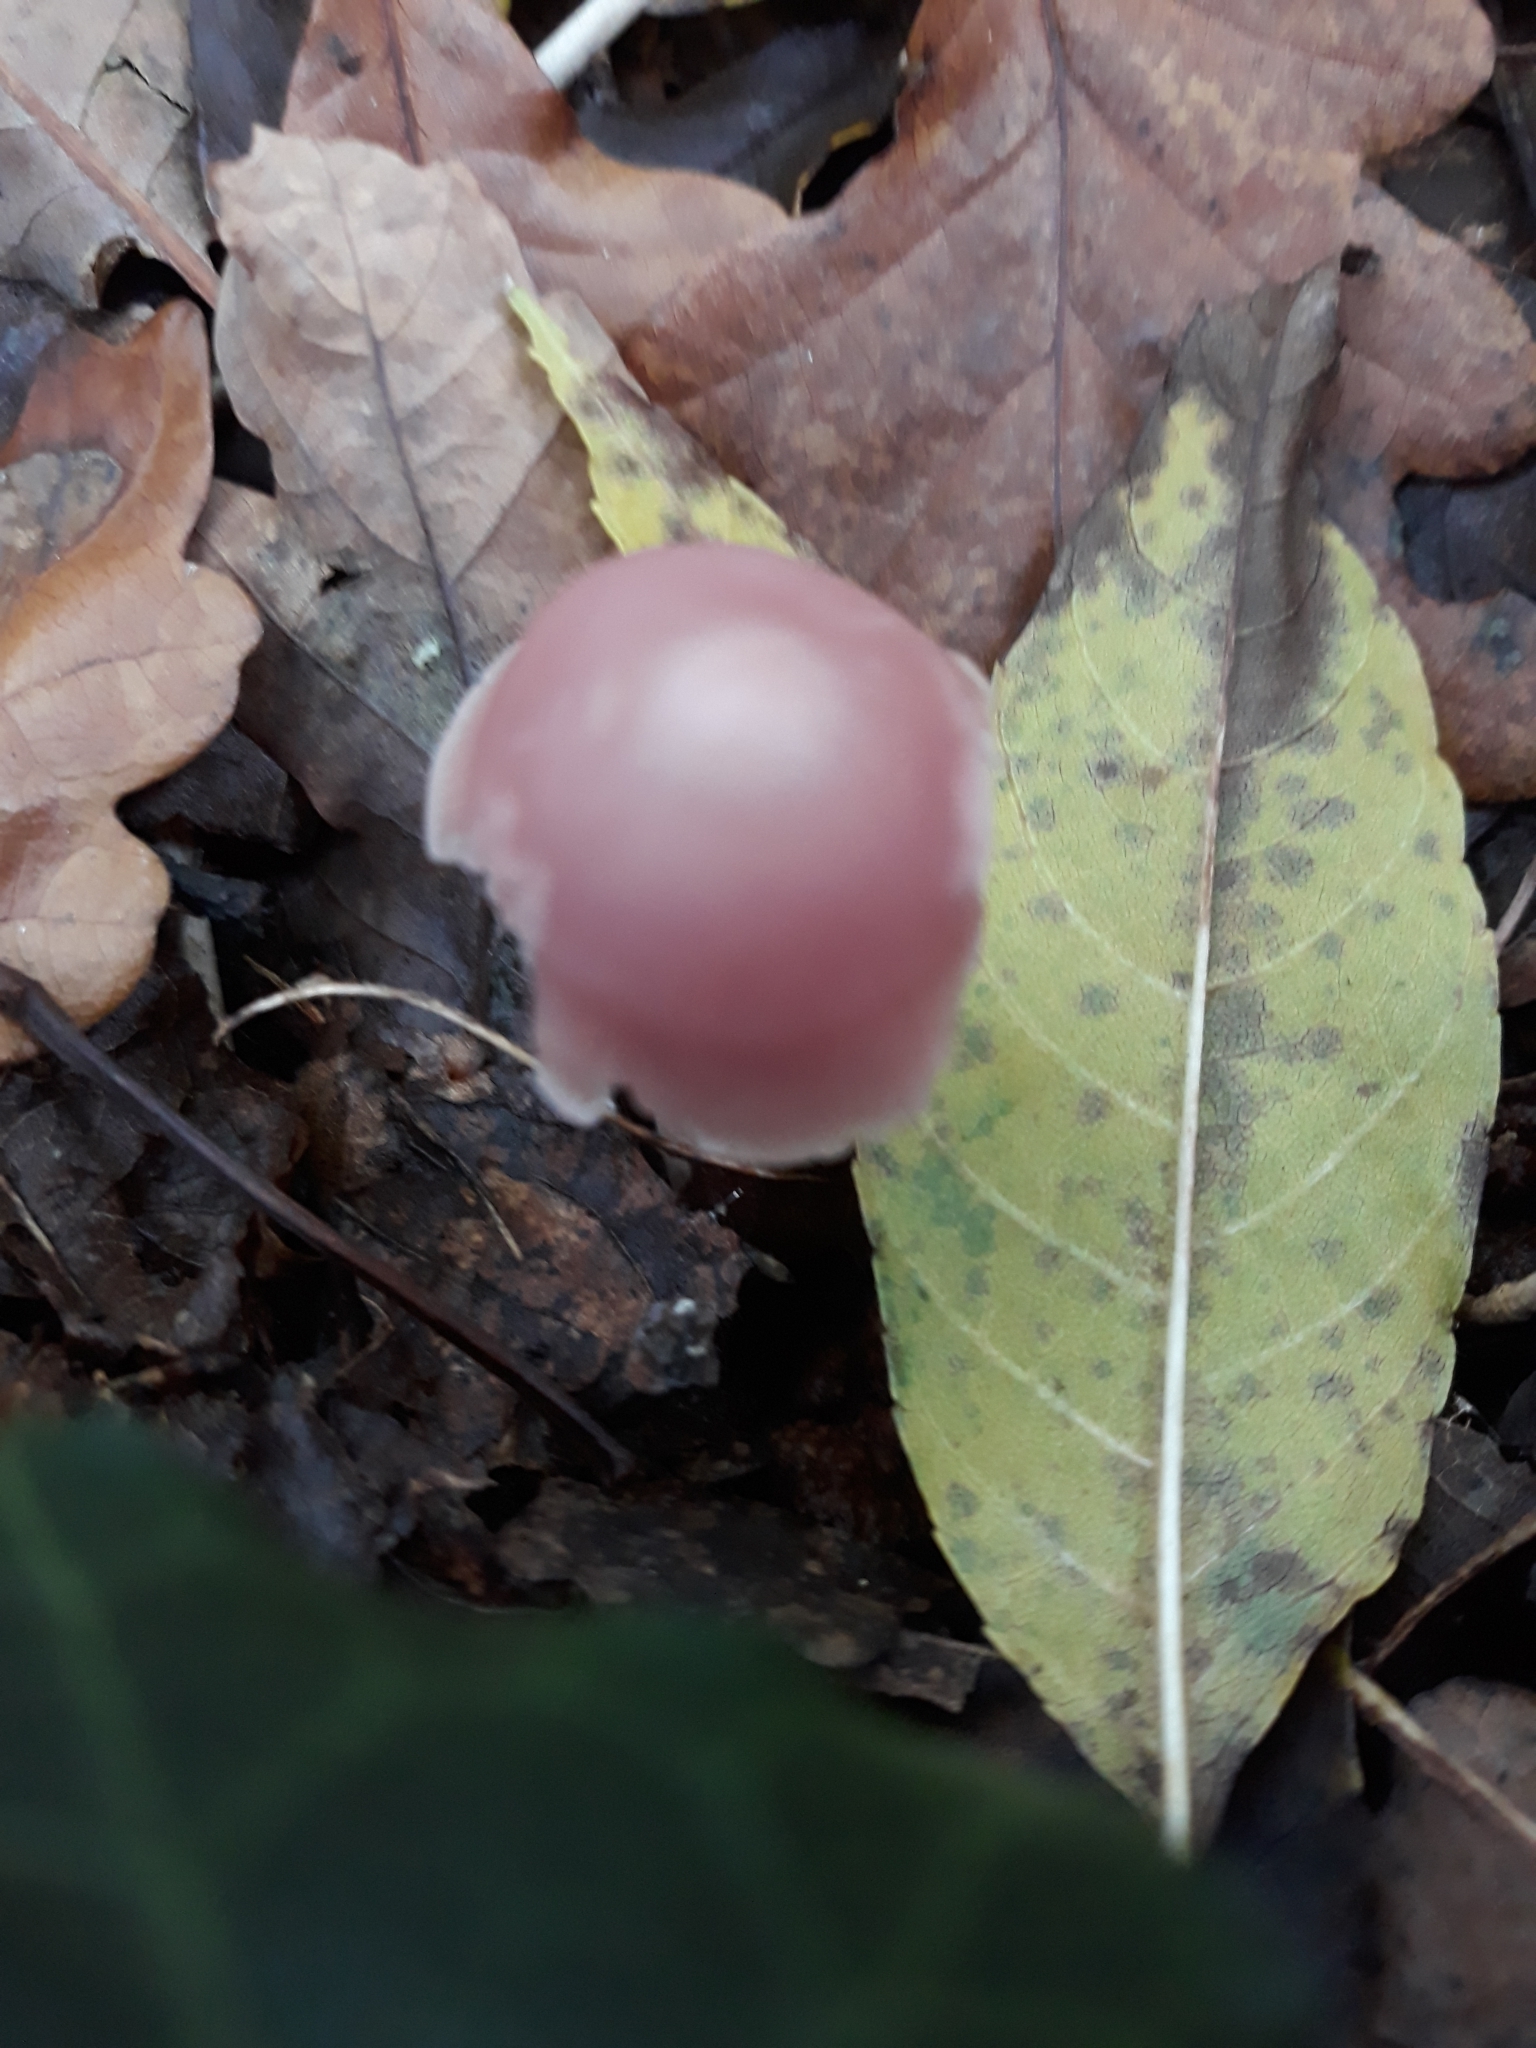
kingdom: Fungi
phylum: Basidiomycota
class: Agaricomycetes
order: Agaricales
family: Mycenaceae
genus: Mycena
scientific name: Mycena pura
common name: Lilac bonnet
